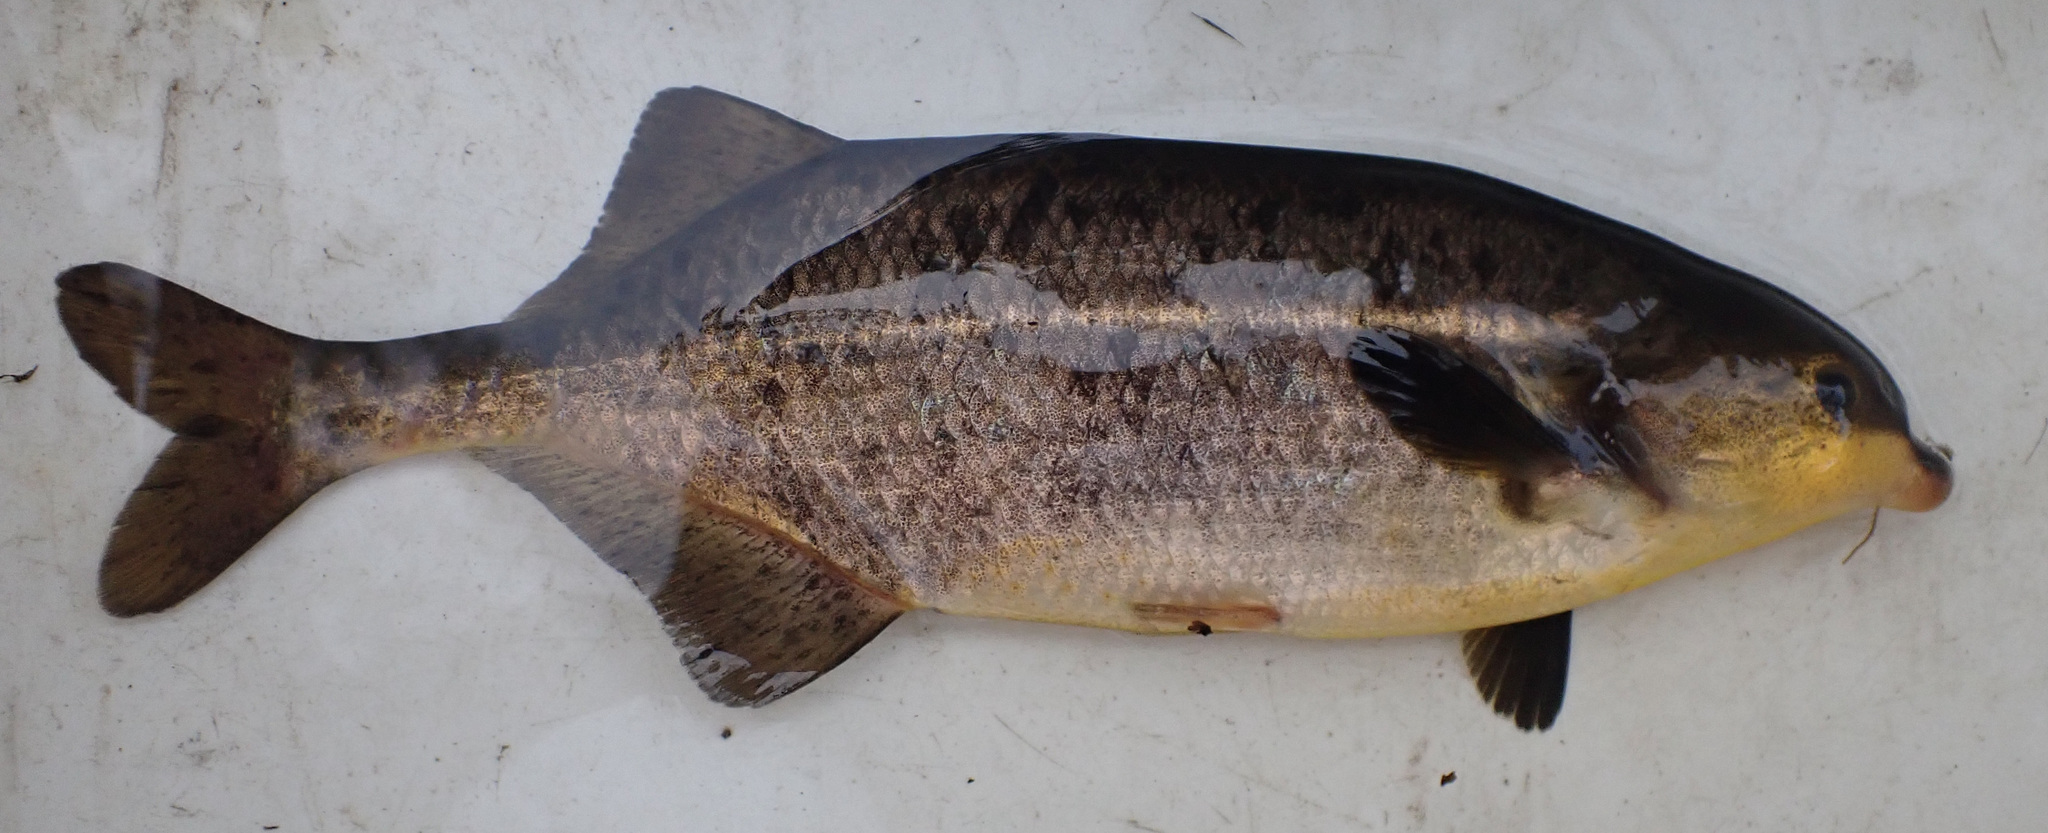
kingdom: Animalia
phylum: Chordata
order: Osteoglossiformes
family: Mormyridae
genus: Marcusenius
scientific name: Marcusenius altisambesi
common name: Bulldog
